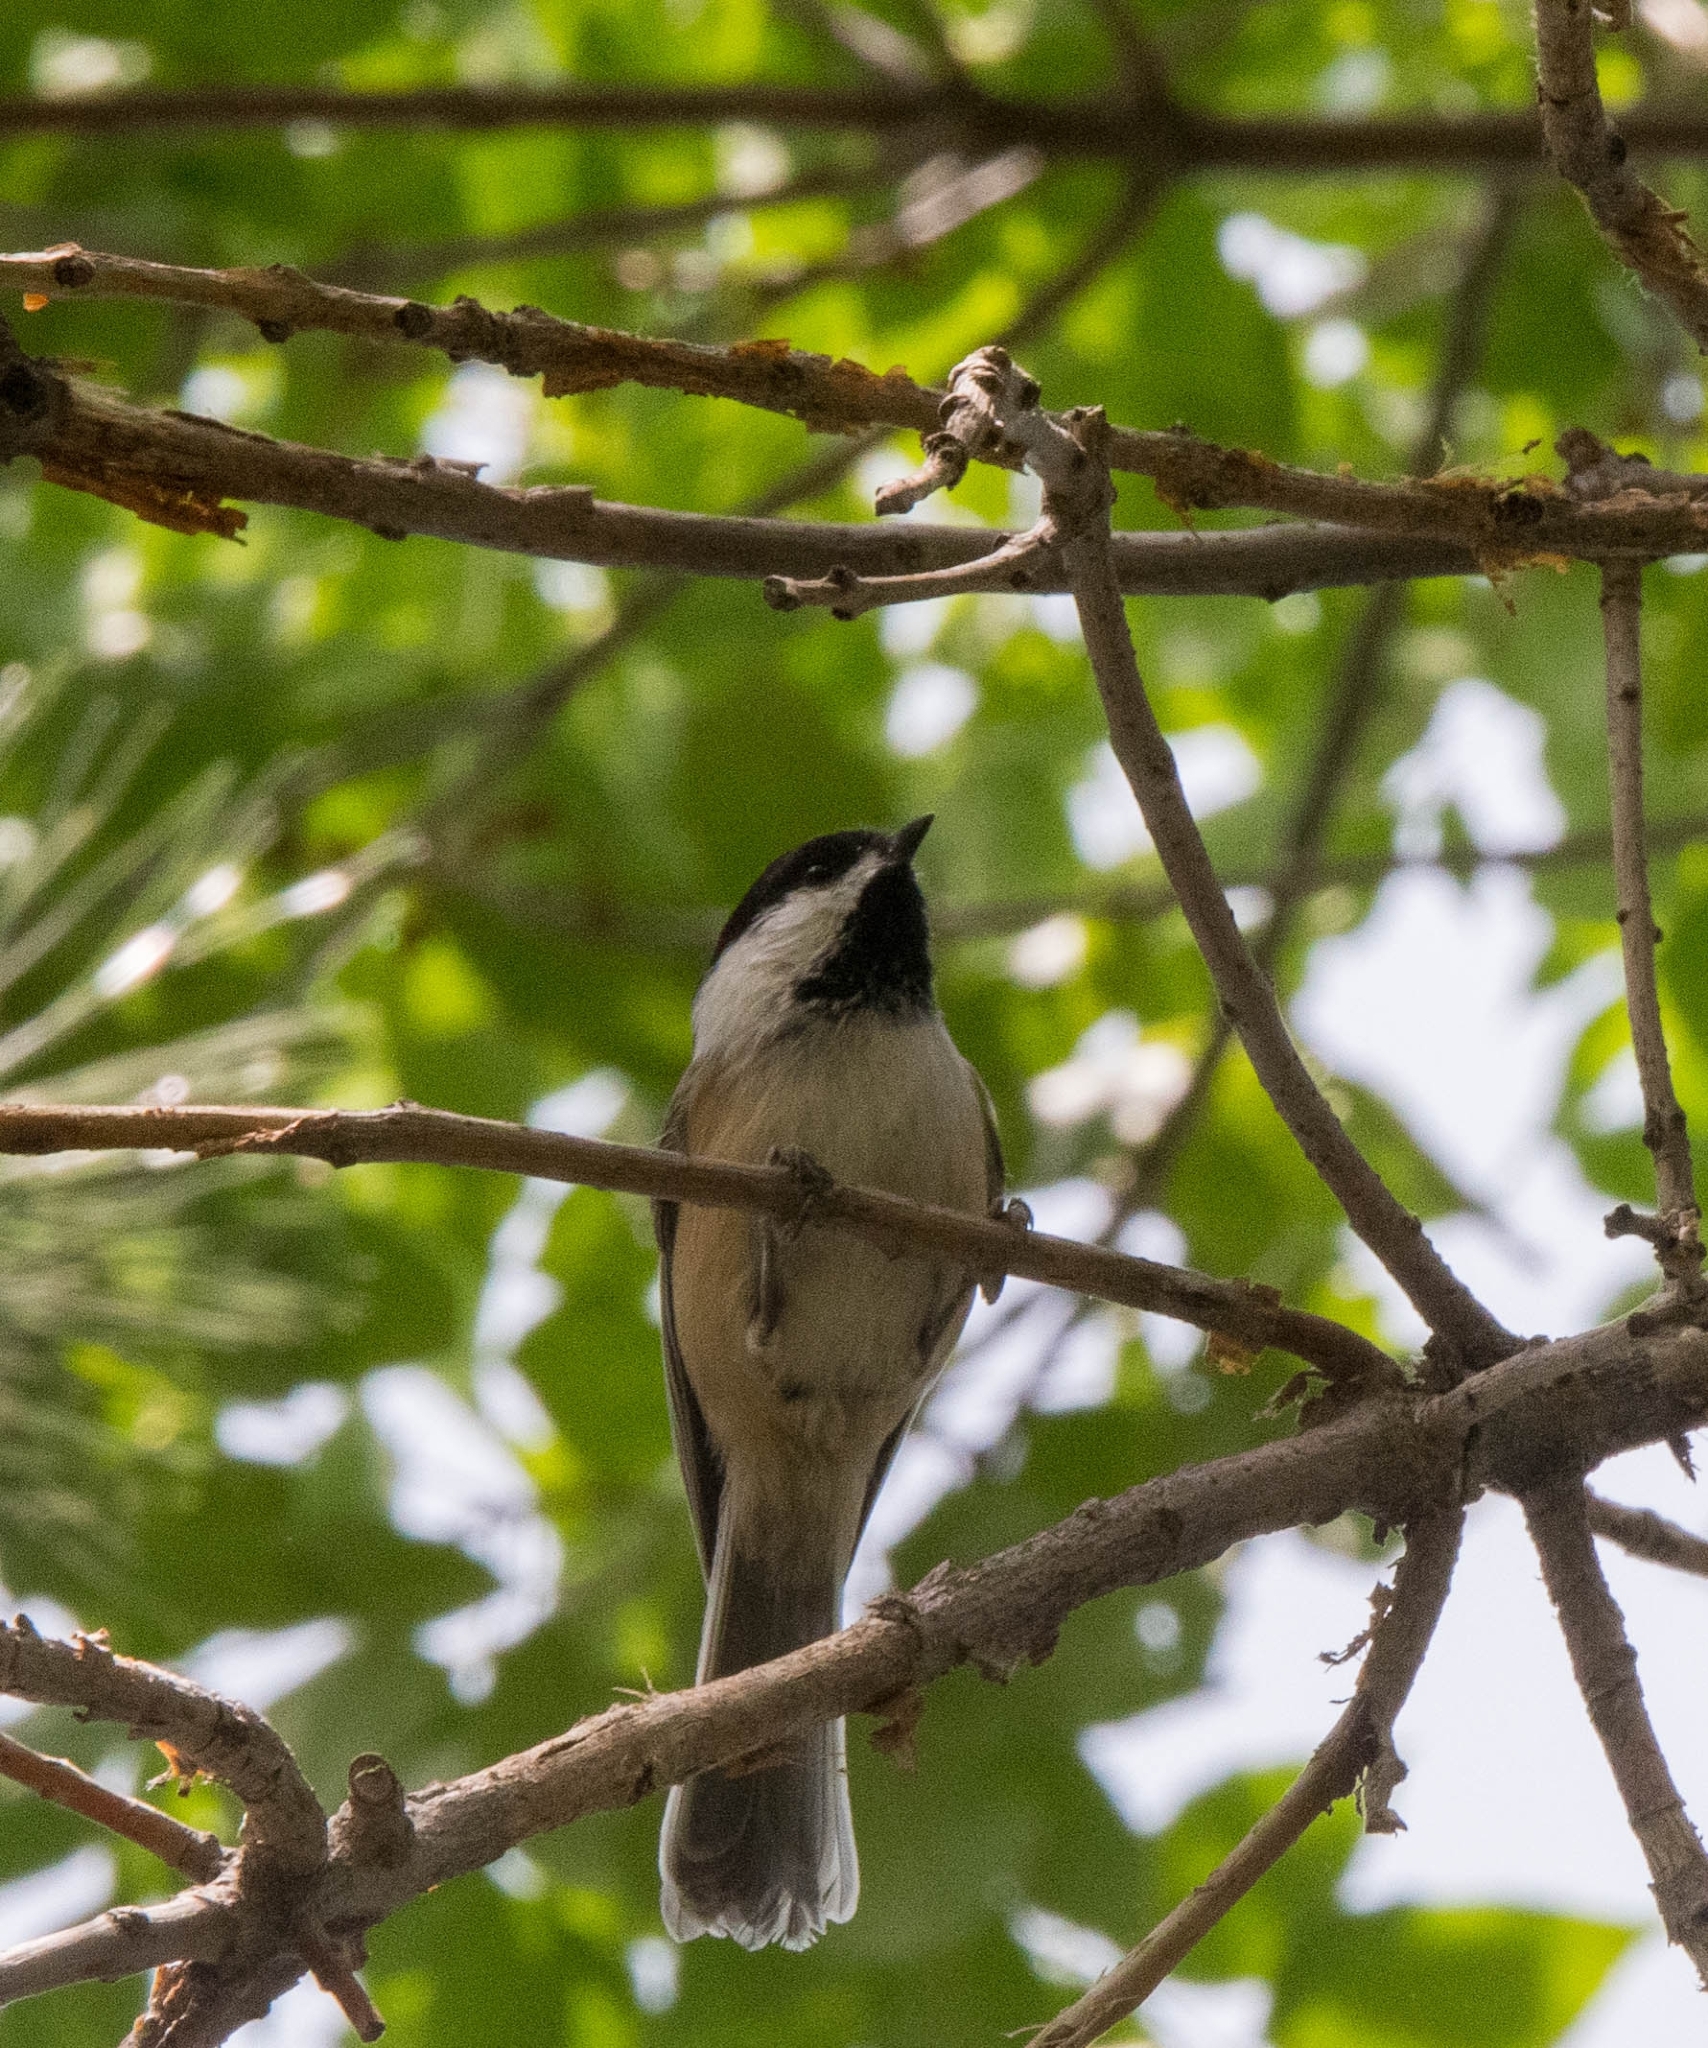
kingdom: Animalia
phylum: Chordata
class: Aves
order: Passeriformes
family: Paridae
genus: Poecile
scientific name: Poecile atricapillus
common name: Black-capped chickadee
